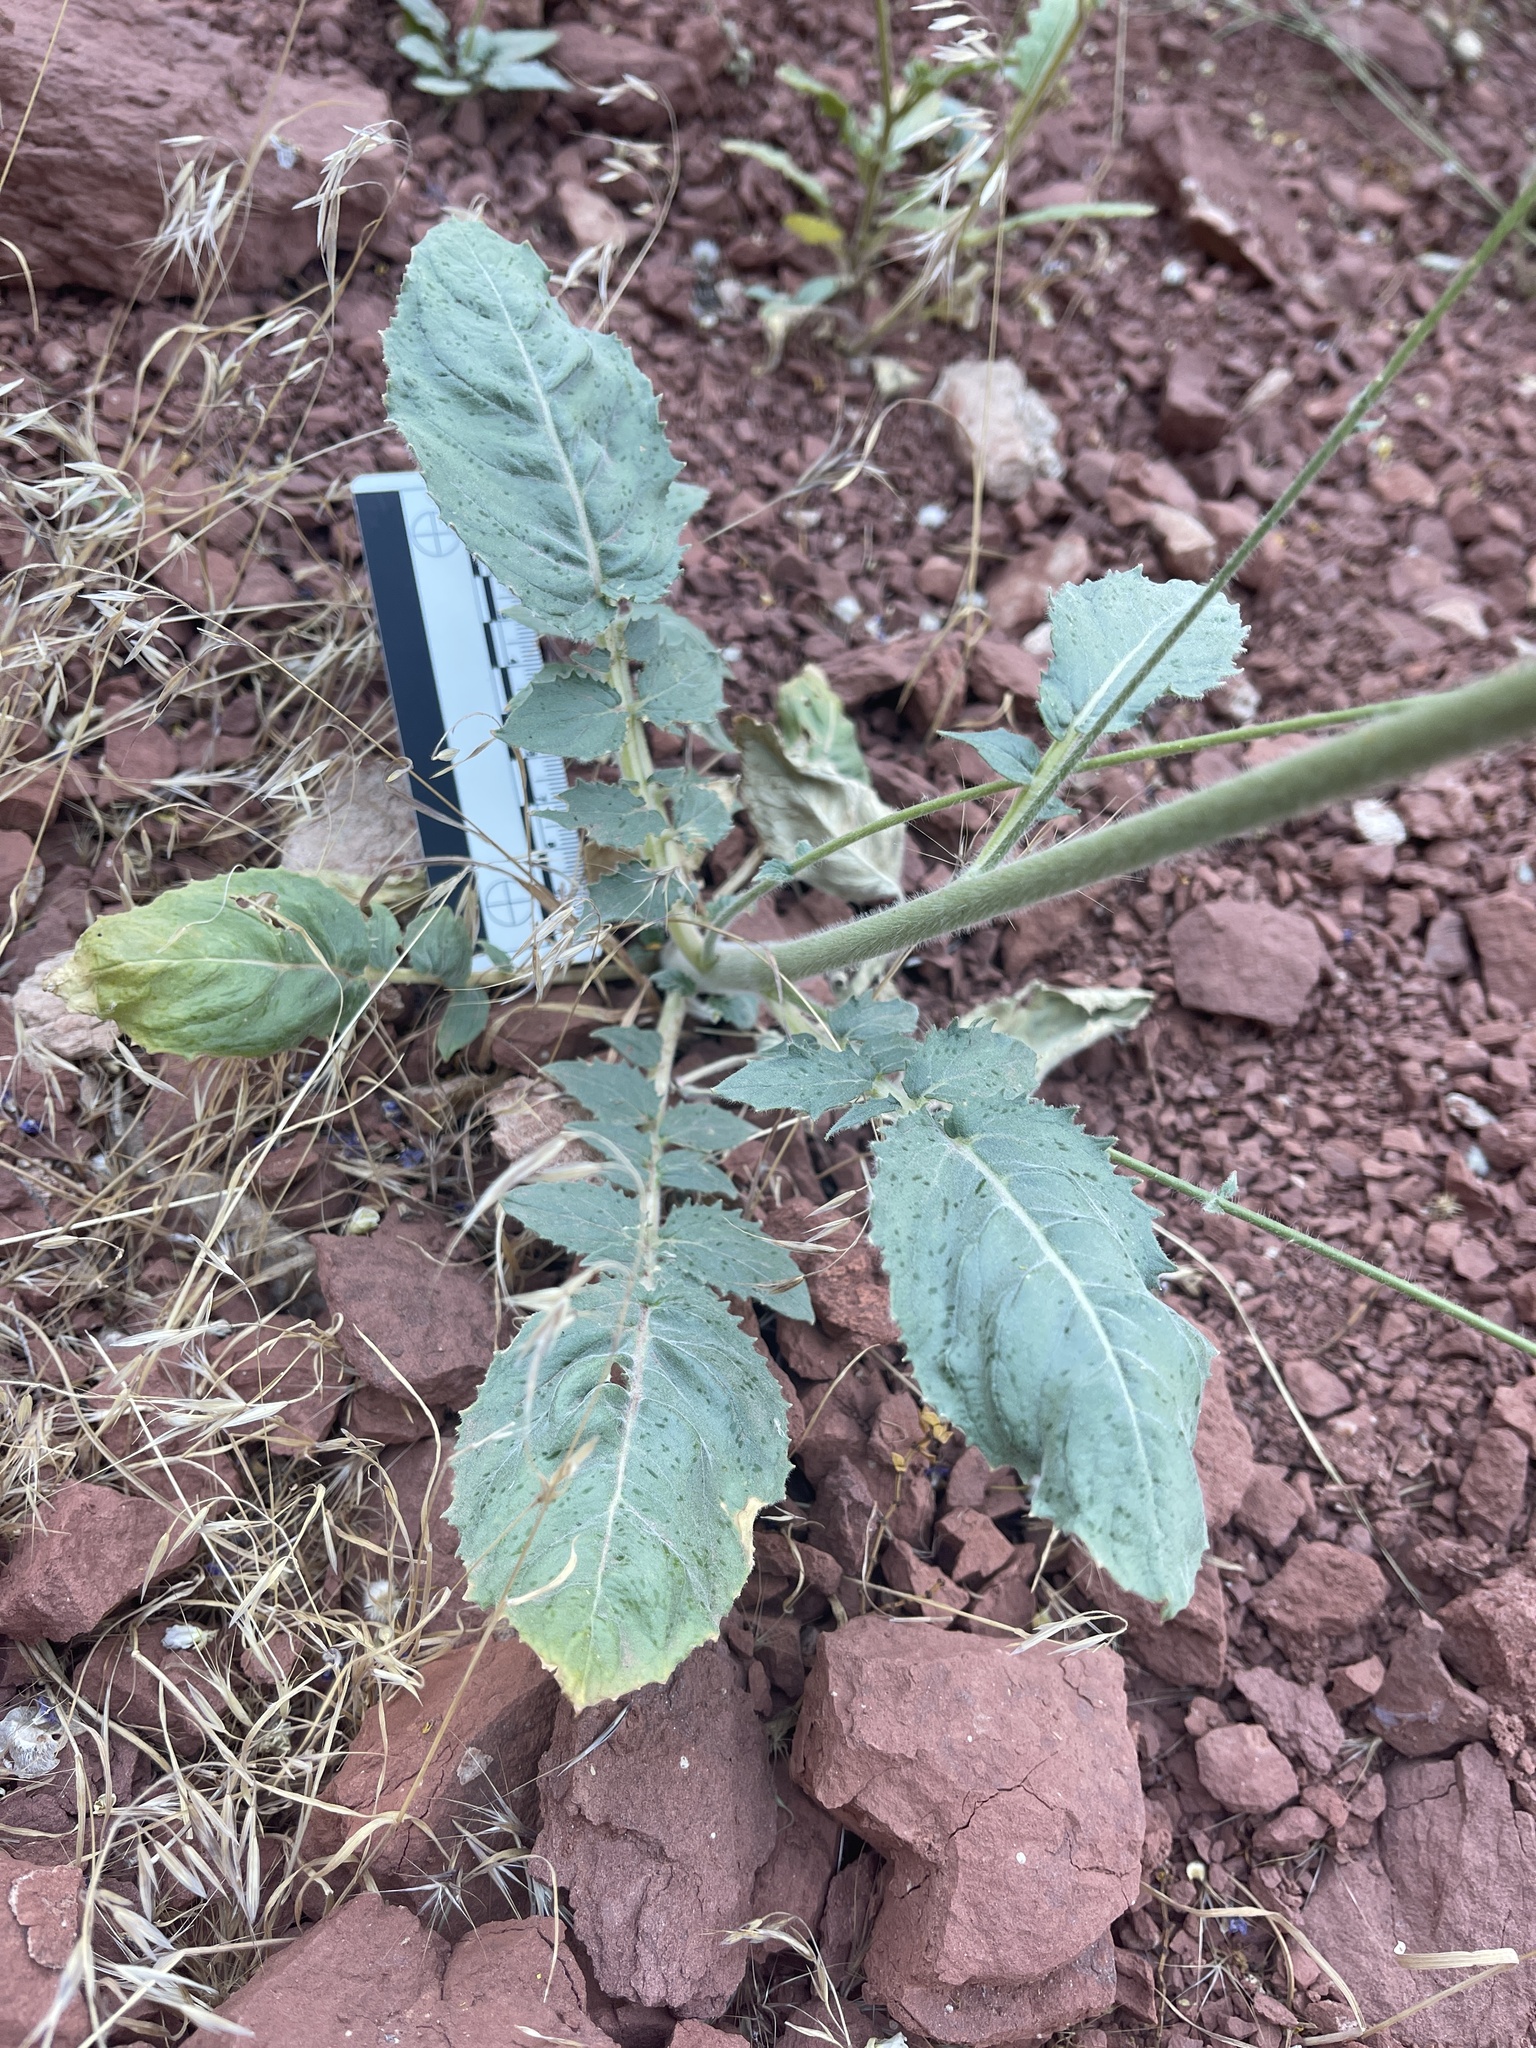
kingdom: Plantae
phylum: Tracheophyta
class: Magnoliopsida
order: Myrtales
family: Onagraceae
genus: Chylismia
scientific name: Chylismia walkeri
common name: Walker's suncup
